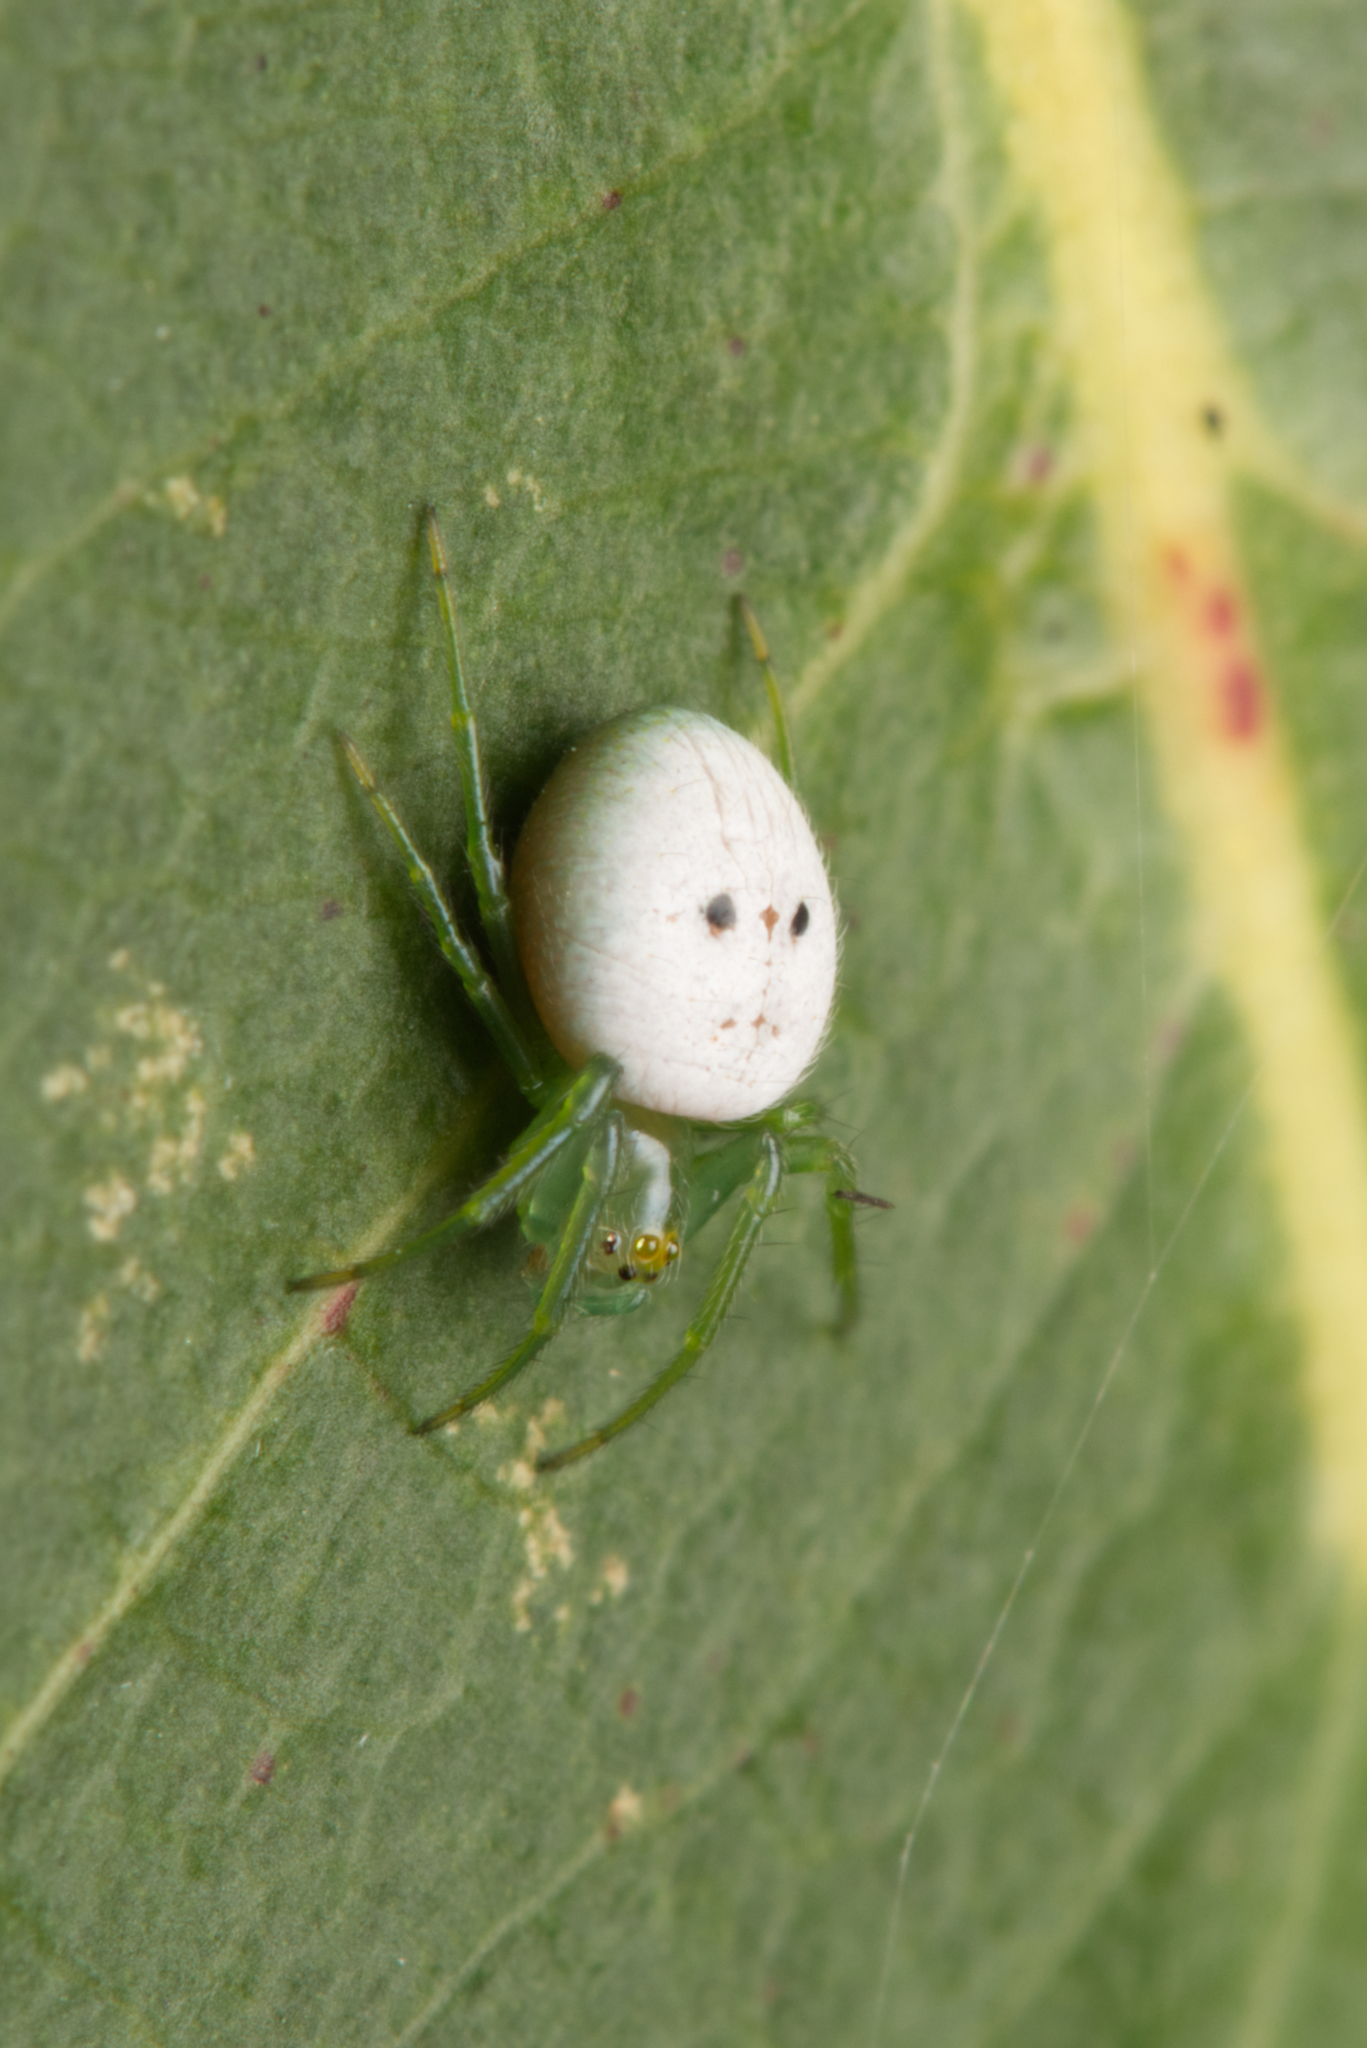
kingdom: Animalia
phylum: Arthropoda
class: Arachnida
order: Araneae
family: Araneidae
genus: Araneus
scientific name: Araneus transversus
